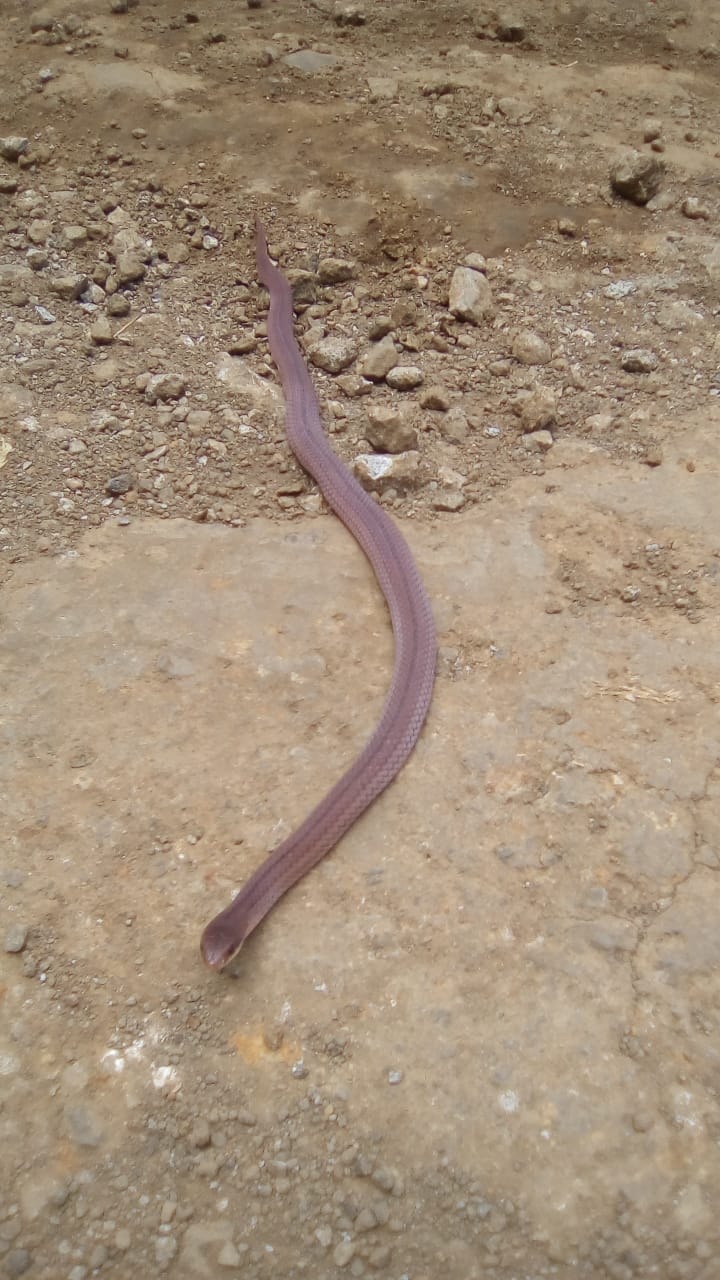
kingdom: Animalia
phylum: Chordata
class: Squamata
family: Colubridae
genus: Stenorrhina
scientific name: Stenorrhina freminvillei
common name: Blood snake
